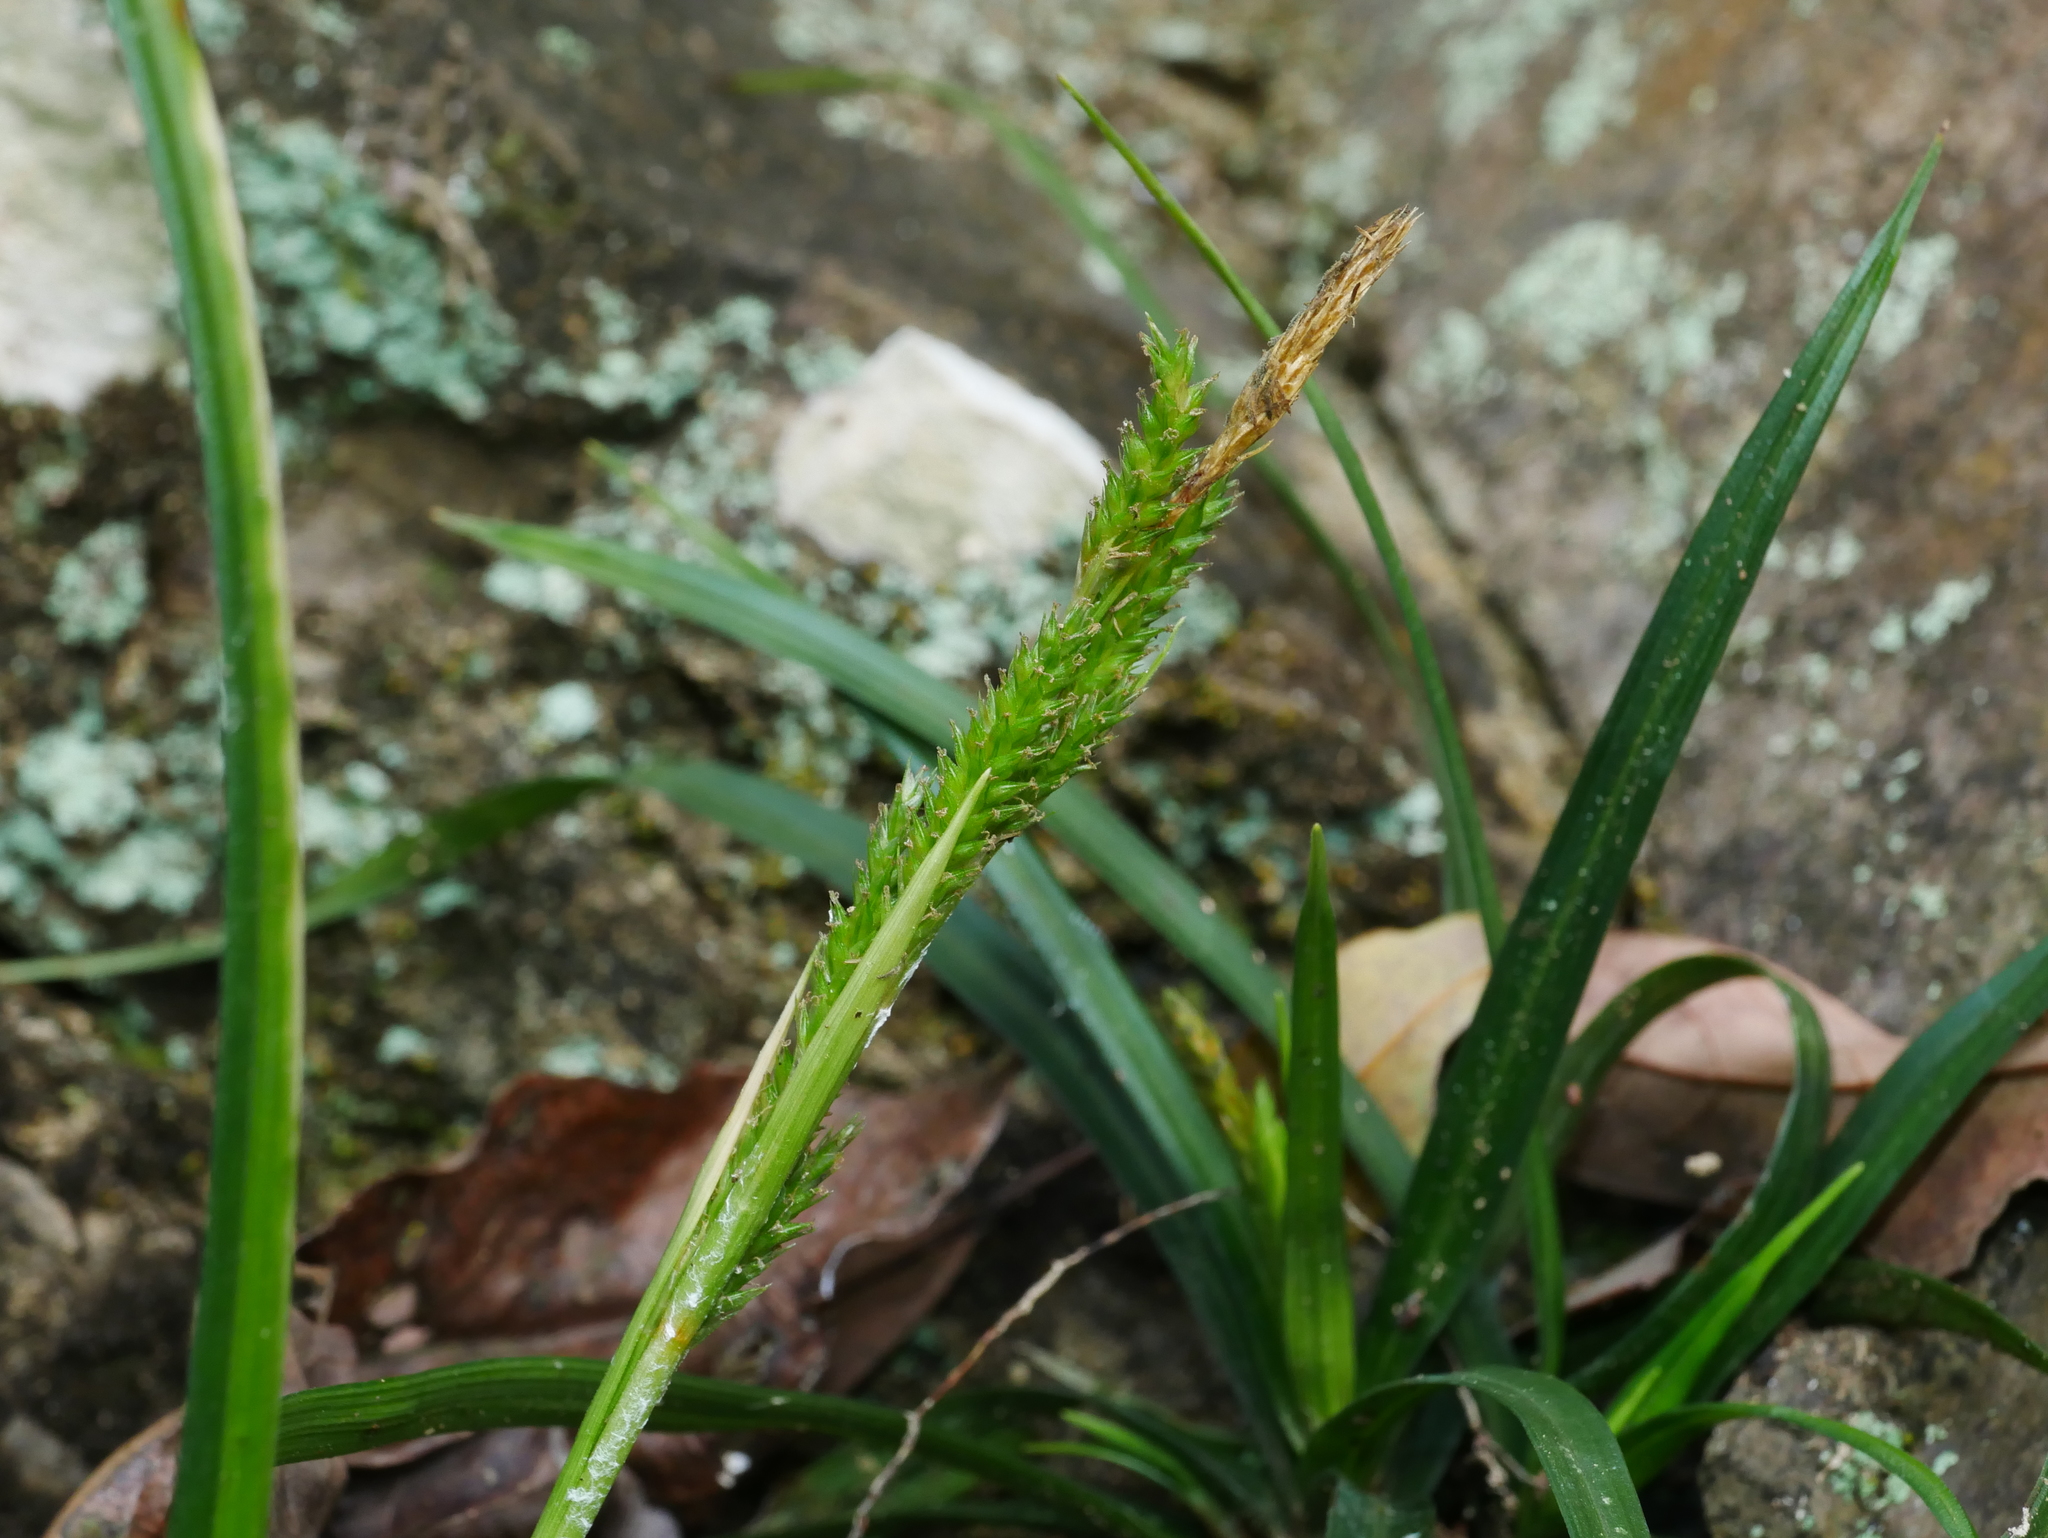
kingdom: Plantae
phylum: Tracheophyta
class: Liliopsida
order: Poales
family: Cyperaceae
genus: Carex
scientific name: Carex sociata
